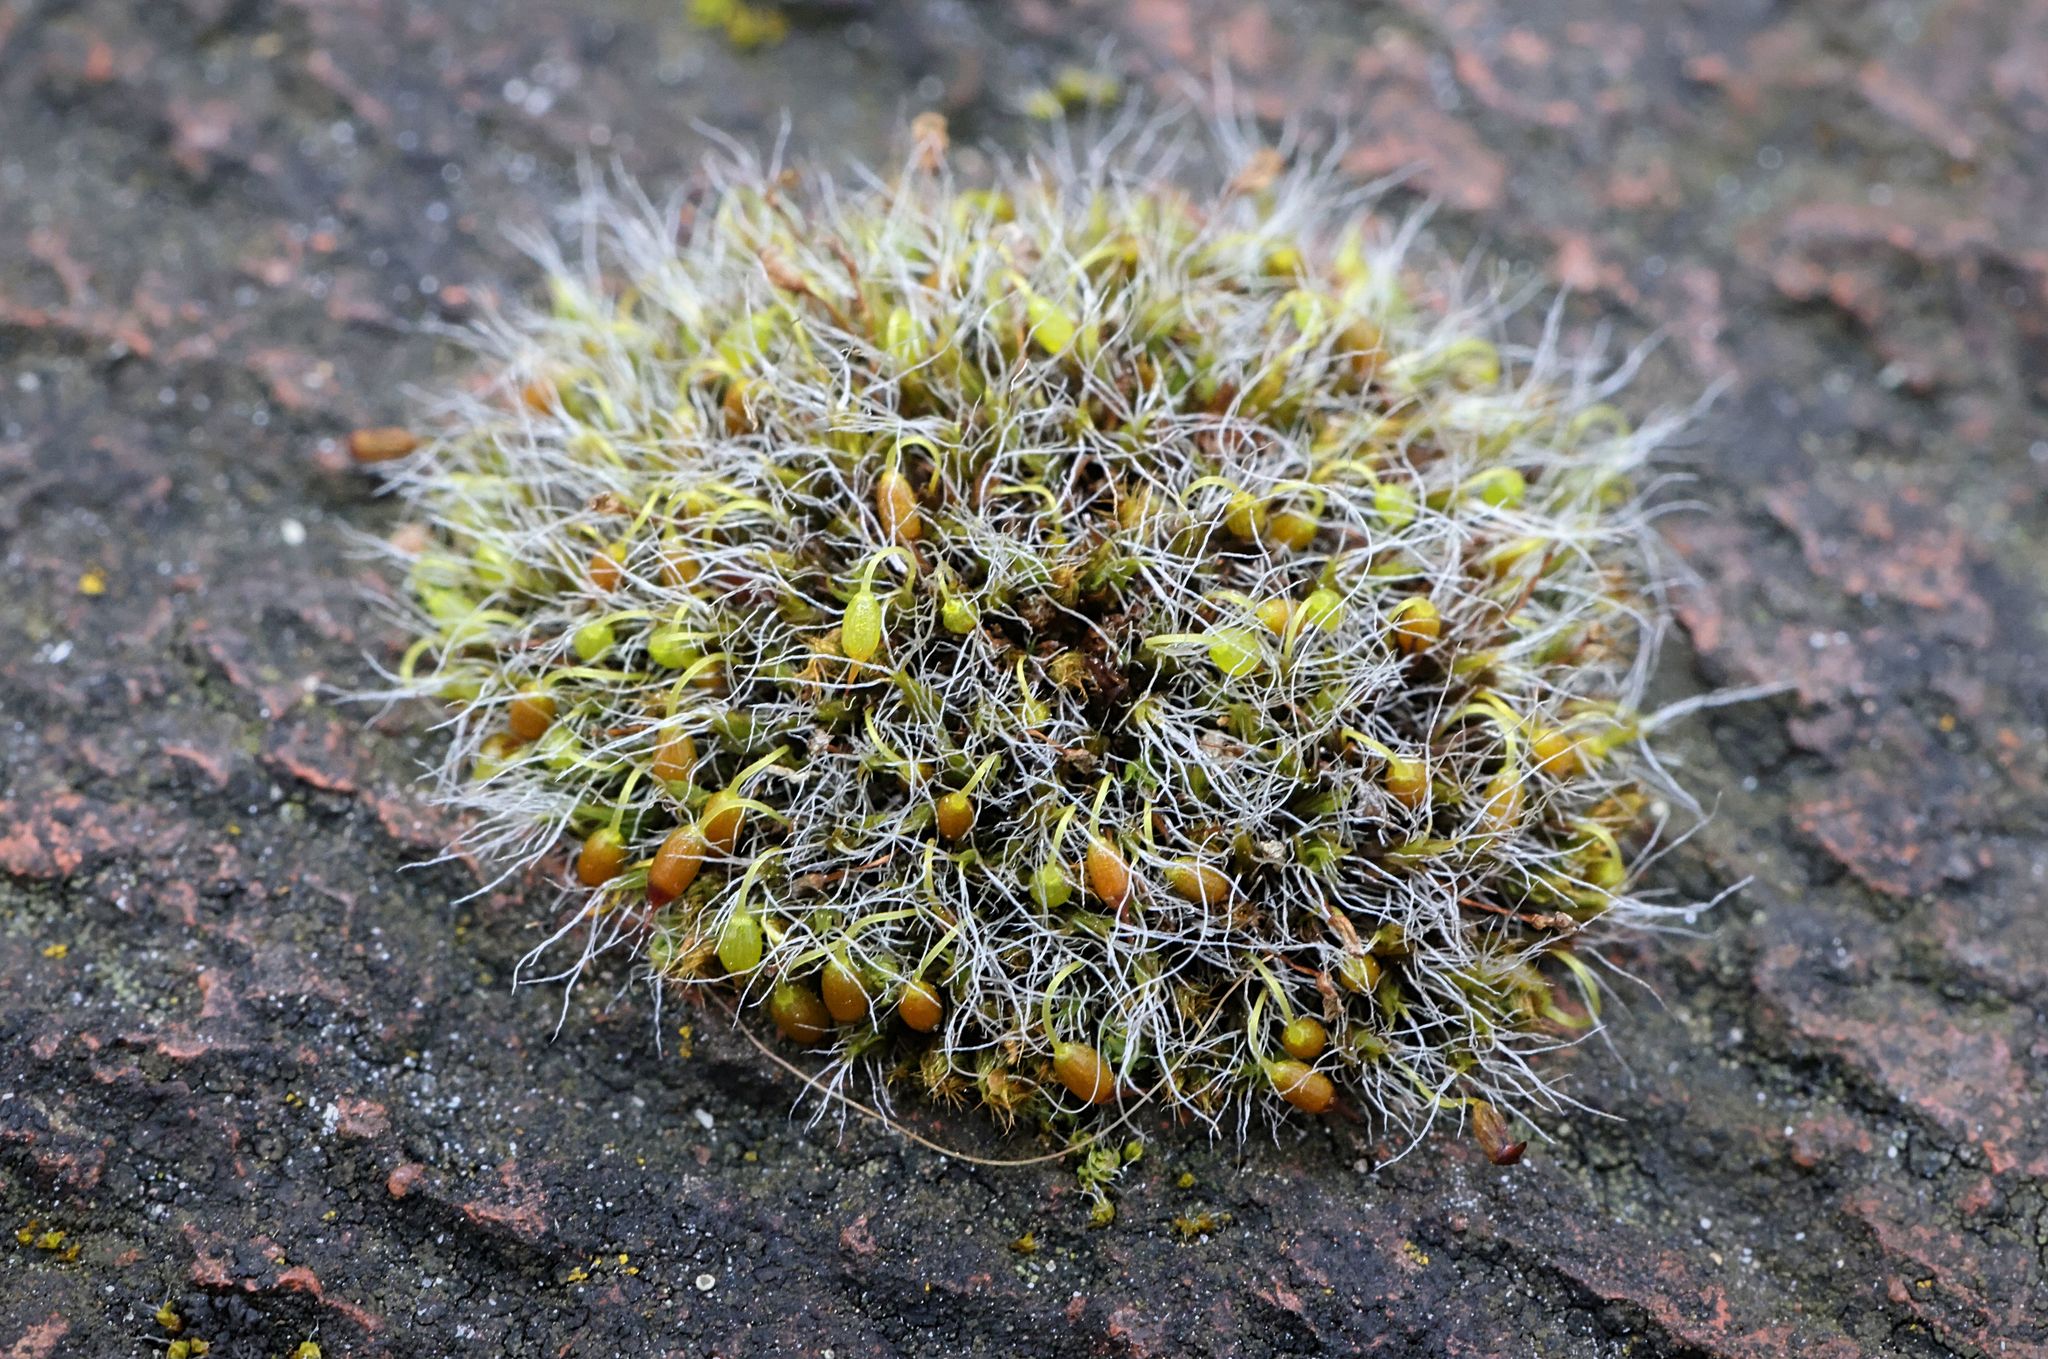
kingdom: Plantae
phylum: Bryophyta
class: Bryopsida
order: Grimmiales
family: Grimmiaceae
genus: Grimmia
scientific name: Grimmia pulvinata
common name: Grey-cushioned grimmia
